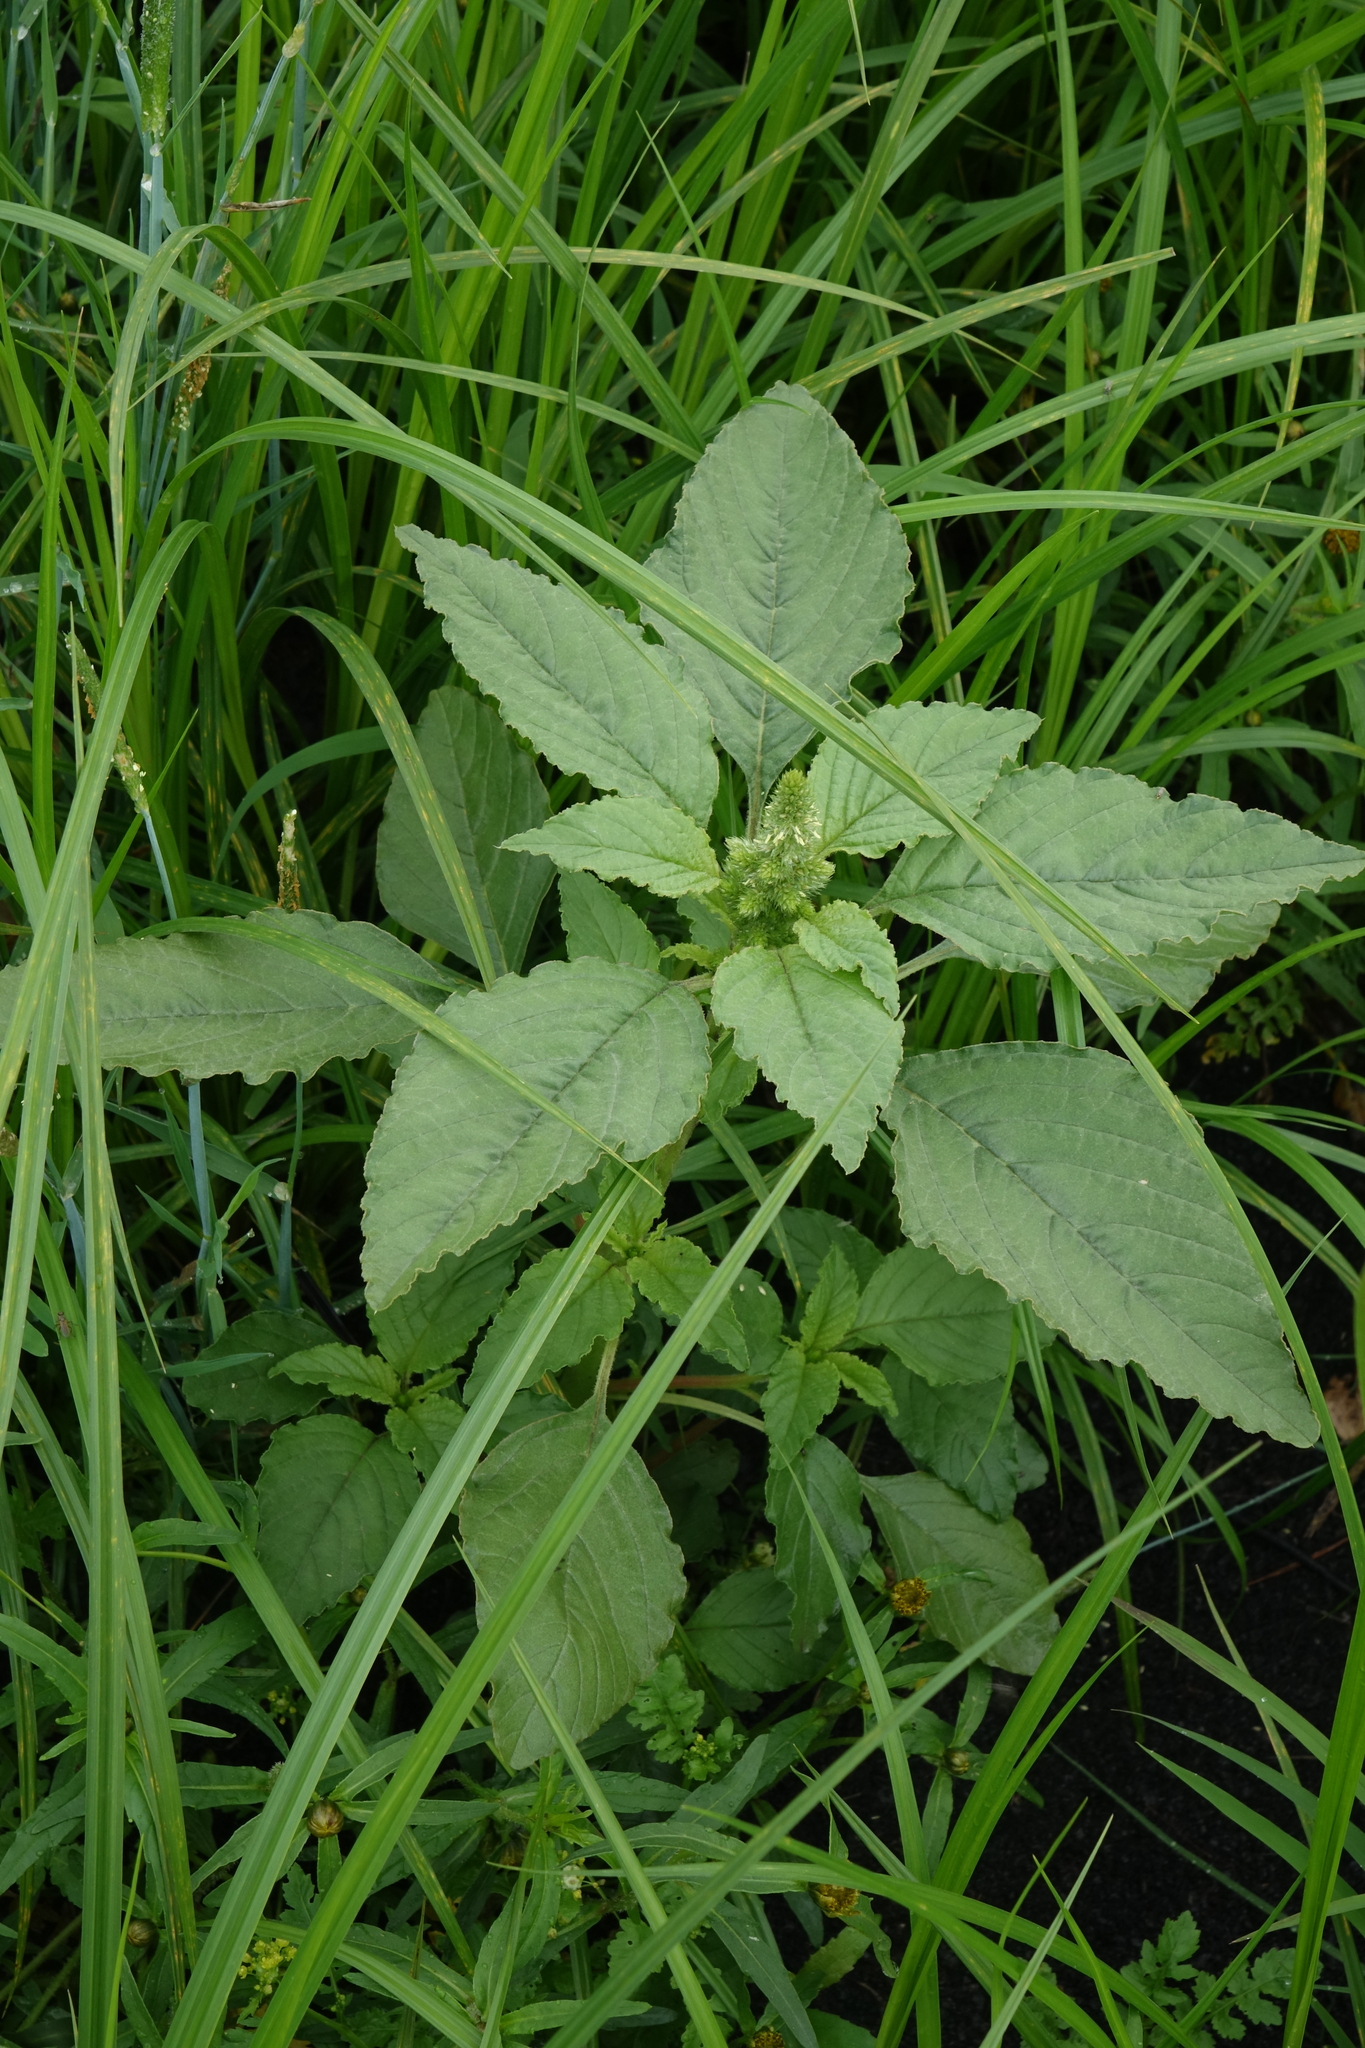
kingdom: Plantae
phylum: Tracheophyta
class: Magnoliopsida
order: Caryophyllales
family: Amaranthaceae
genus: Amaranthus
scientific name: Amaranthus retroflexus
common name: Redroot amaranth
